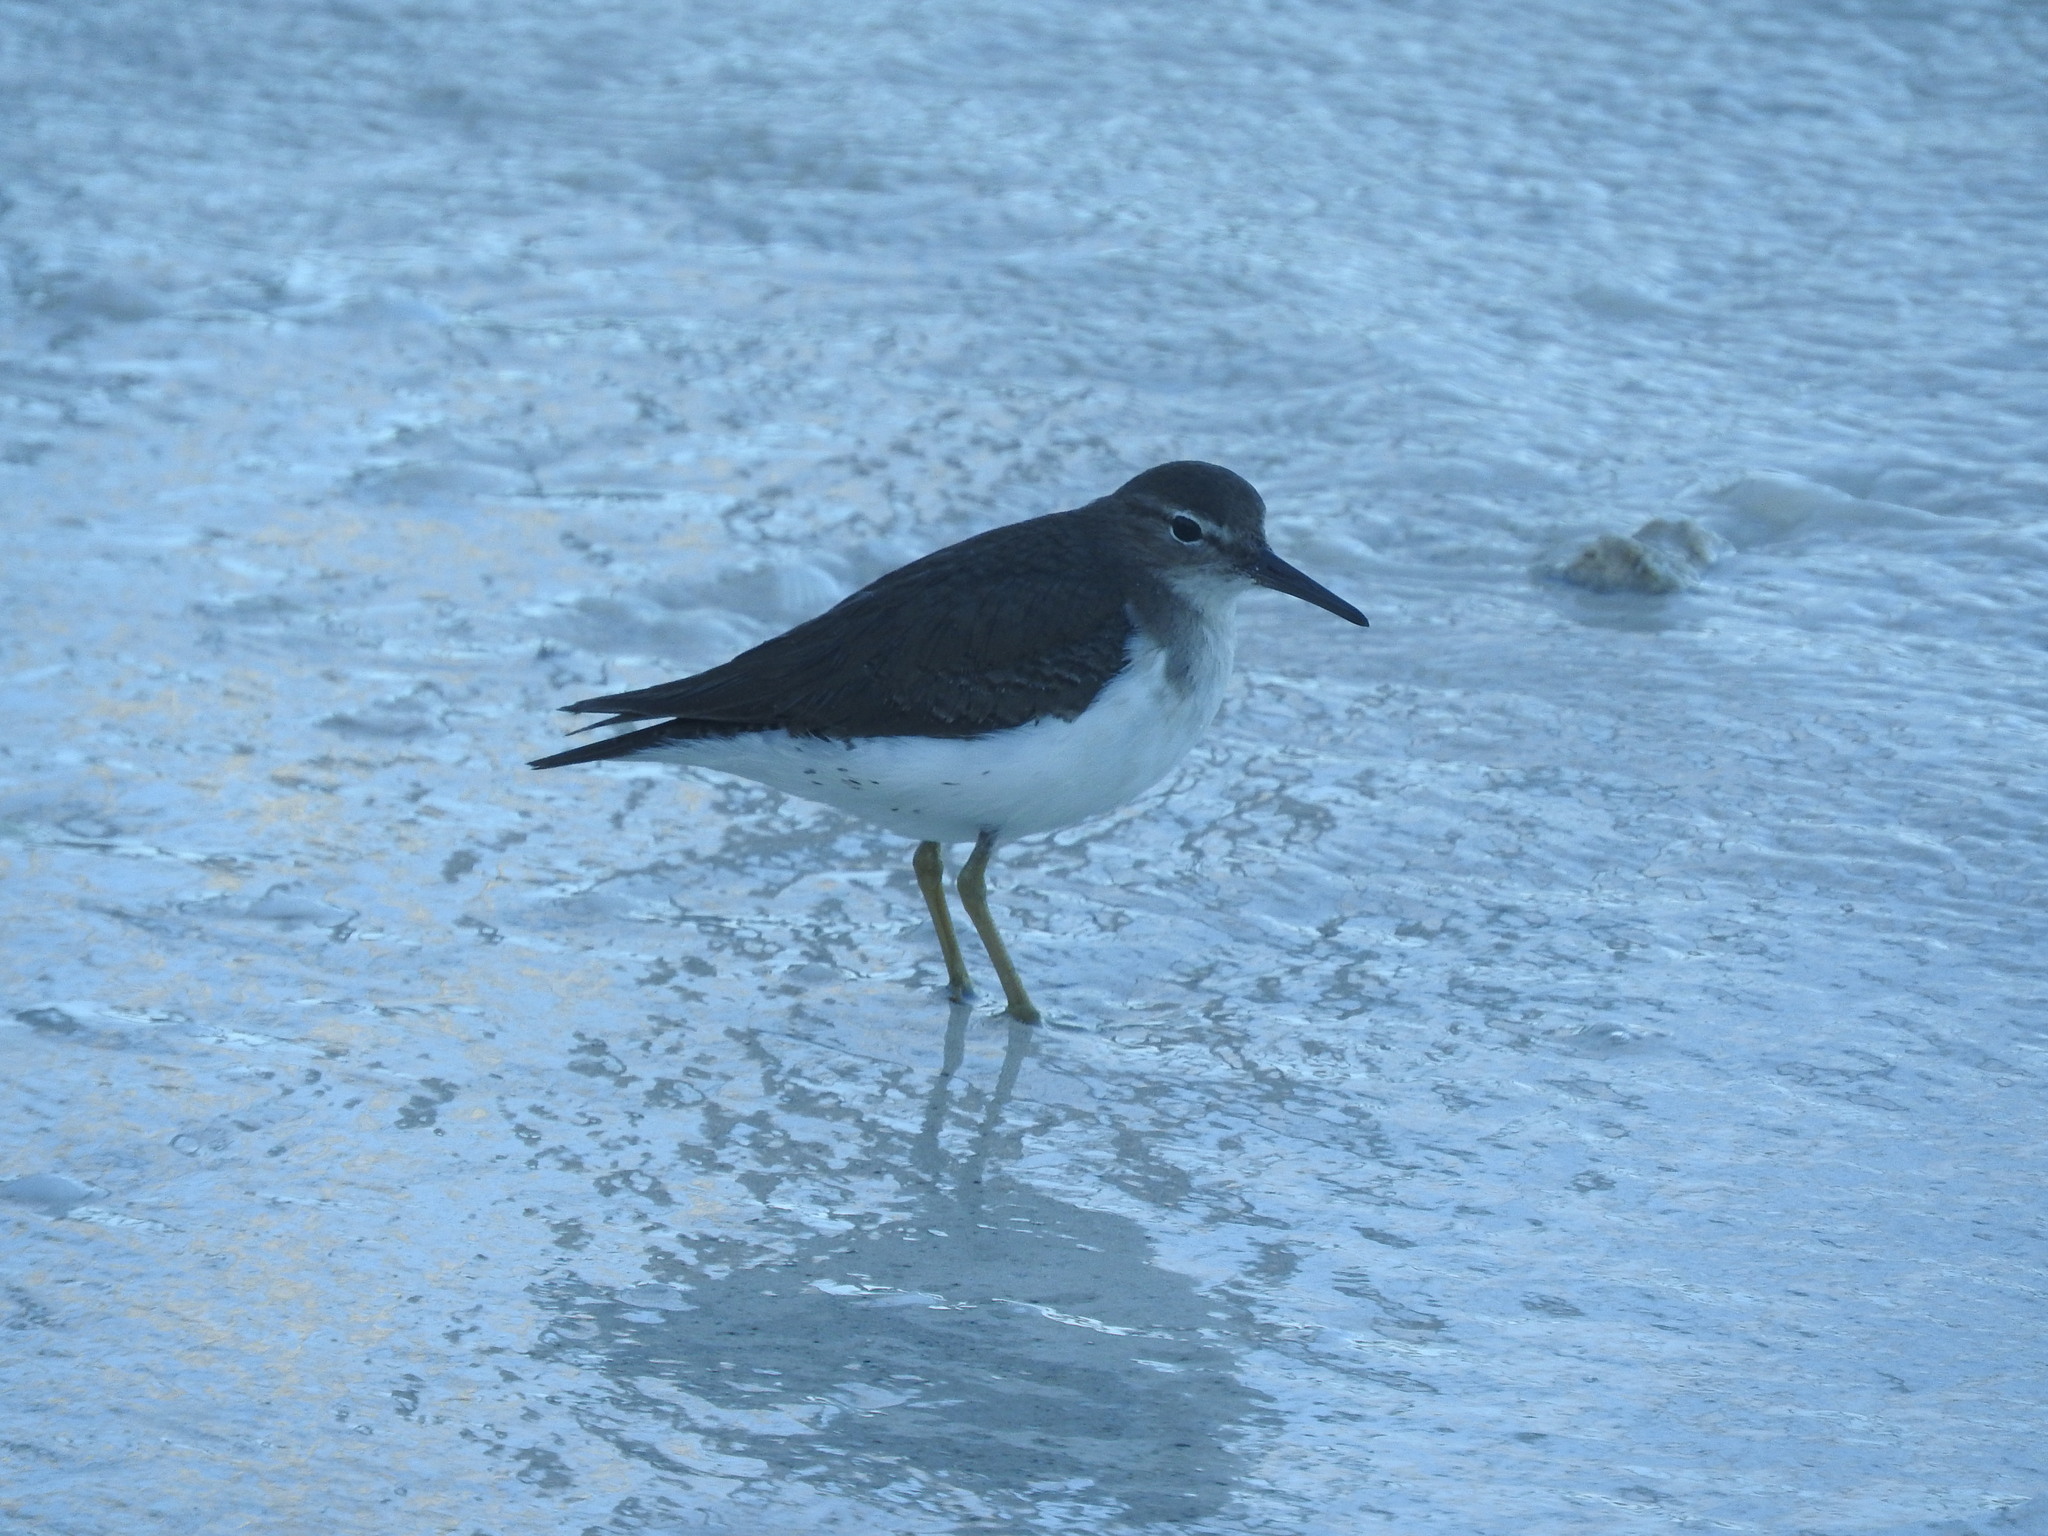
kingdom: Animalia
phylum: Chordata
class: Aves
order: Charadriiformes
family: Scolopacidae
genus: Actitis
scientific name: Actitis macularius
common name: Spotted sandpiper
